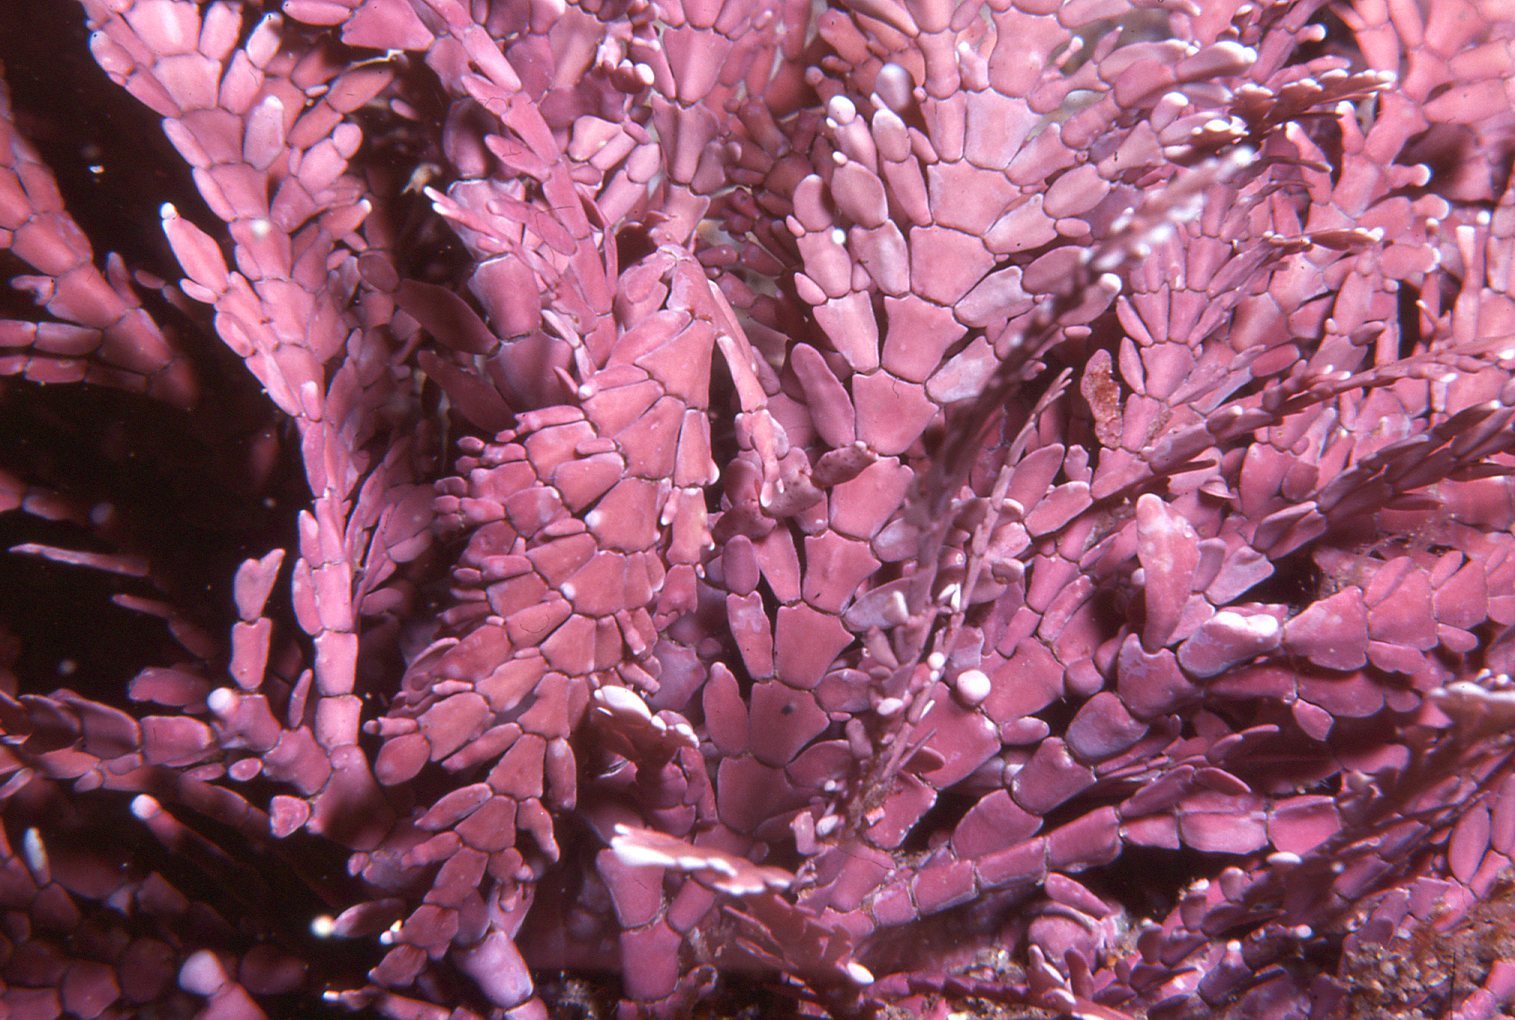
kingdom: Plantae
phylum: Rhodophyta
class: Florideophyceae
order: Corallinales
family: Corallinaceae
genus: Corallina
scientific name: Corallina officinalis
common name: Coral weed
